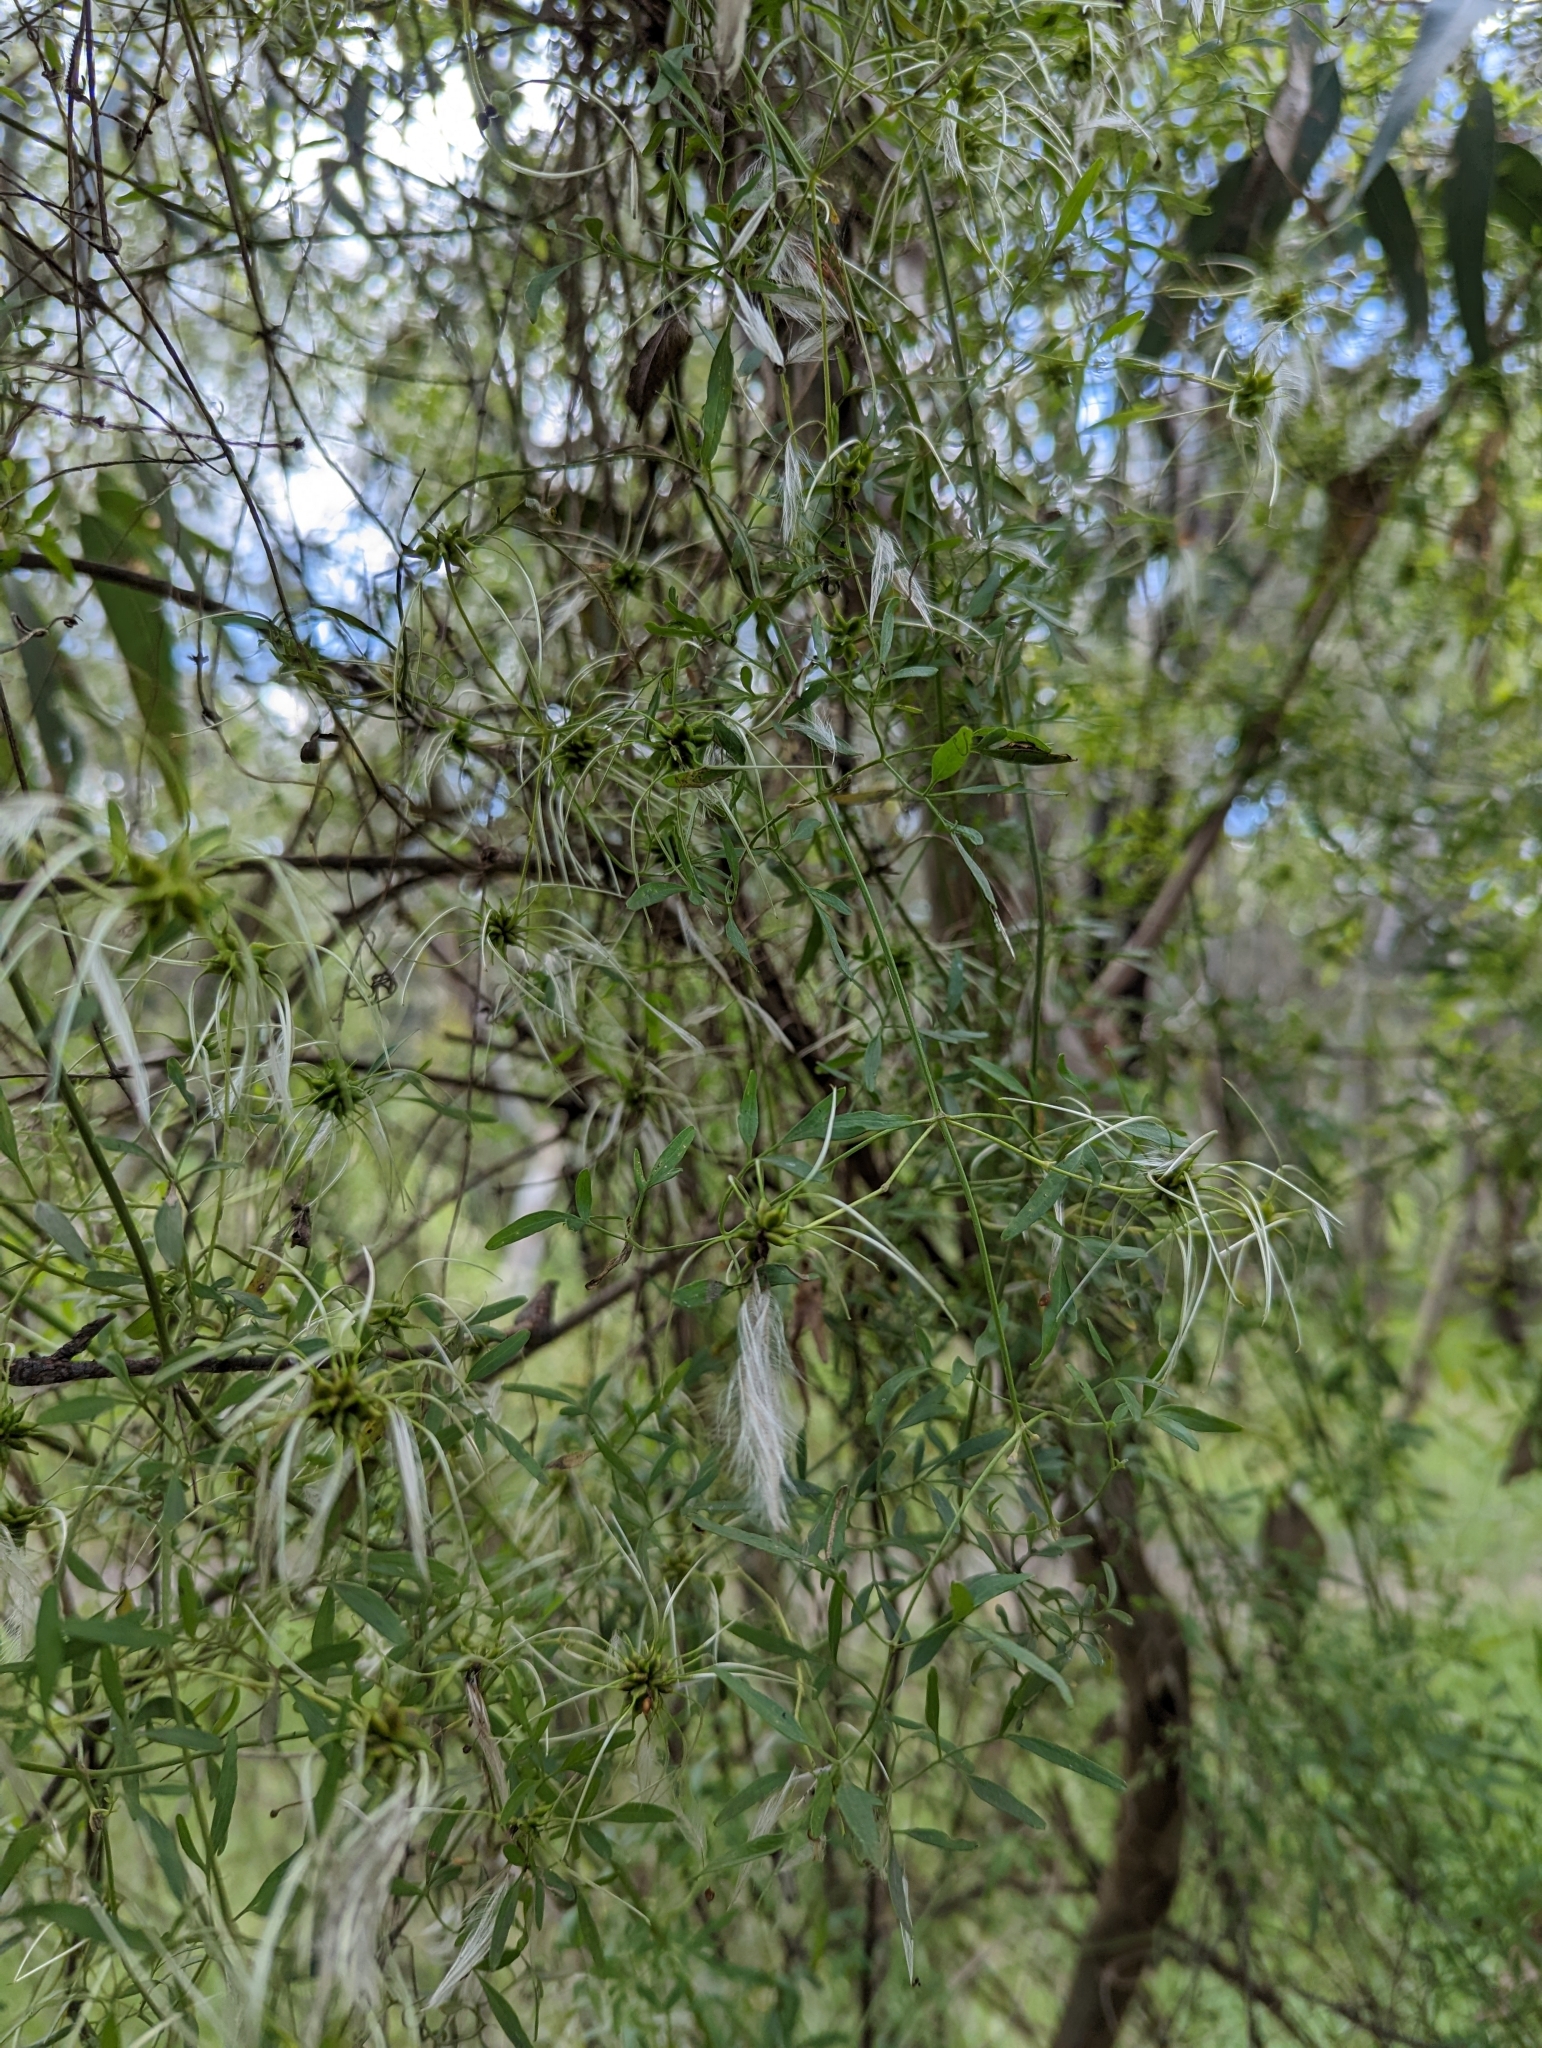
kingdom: Plantae
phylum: Tracheophyta
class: Magnoliopsida
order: Ranunculales
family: Ranunculaceae
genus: Clematis
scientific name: Clematis microphylla
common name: Headachevine
